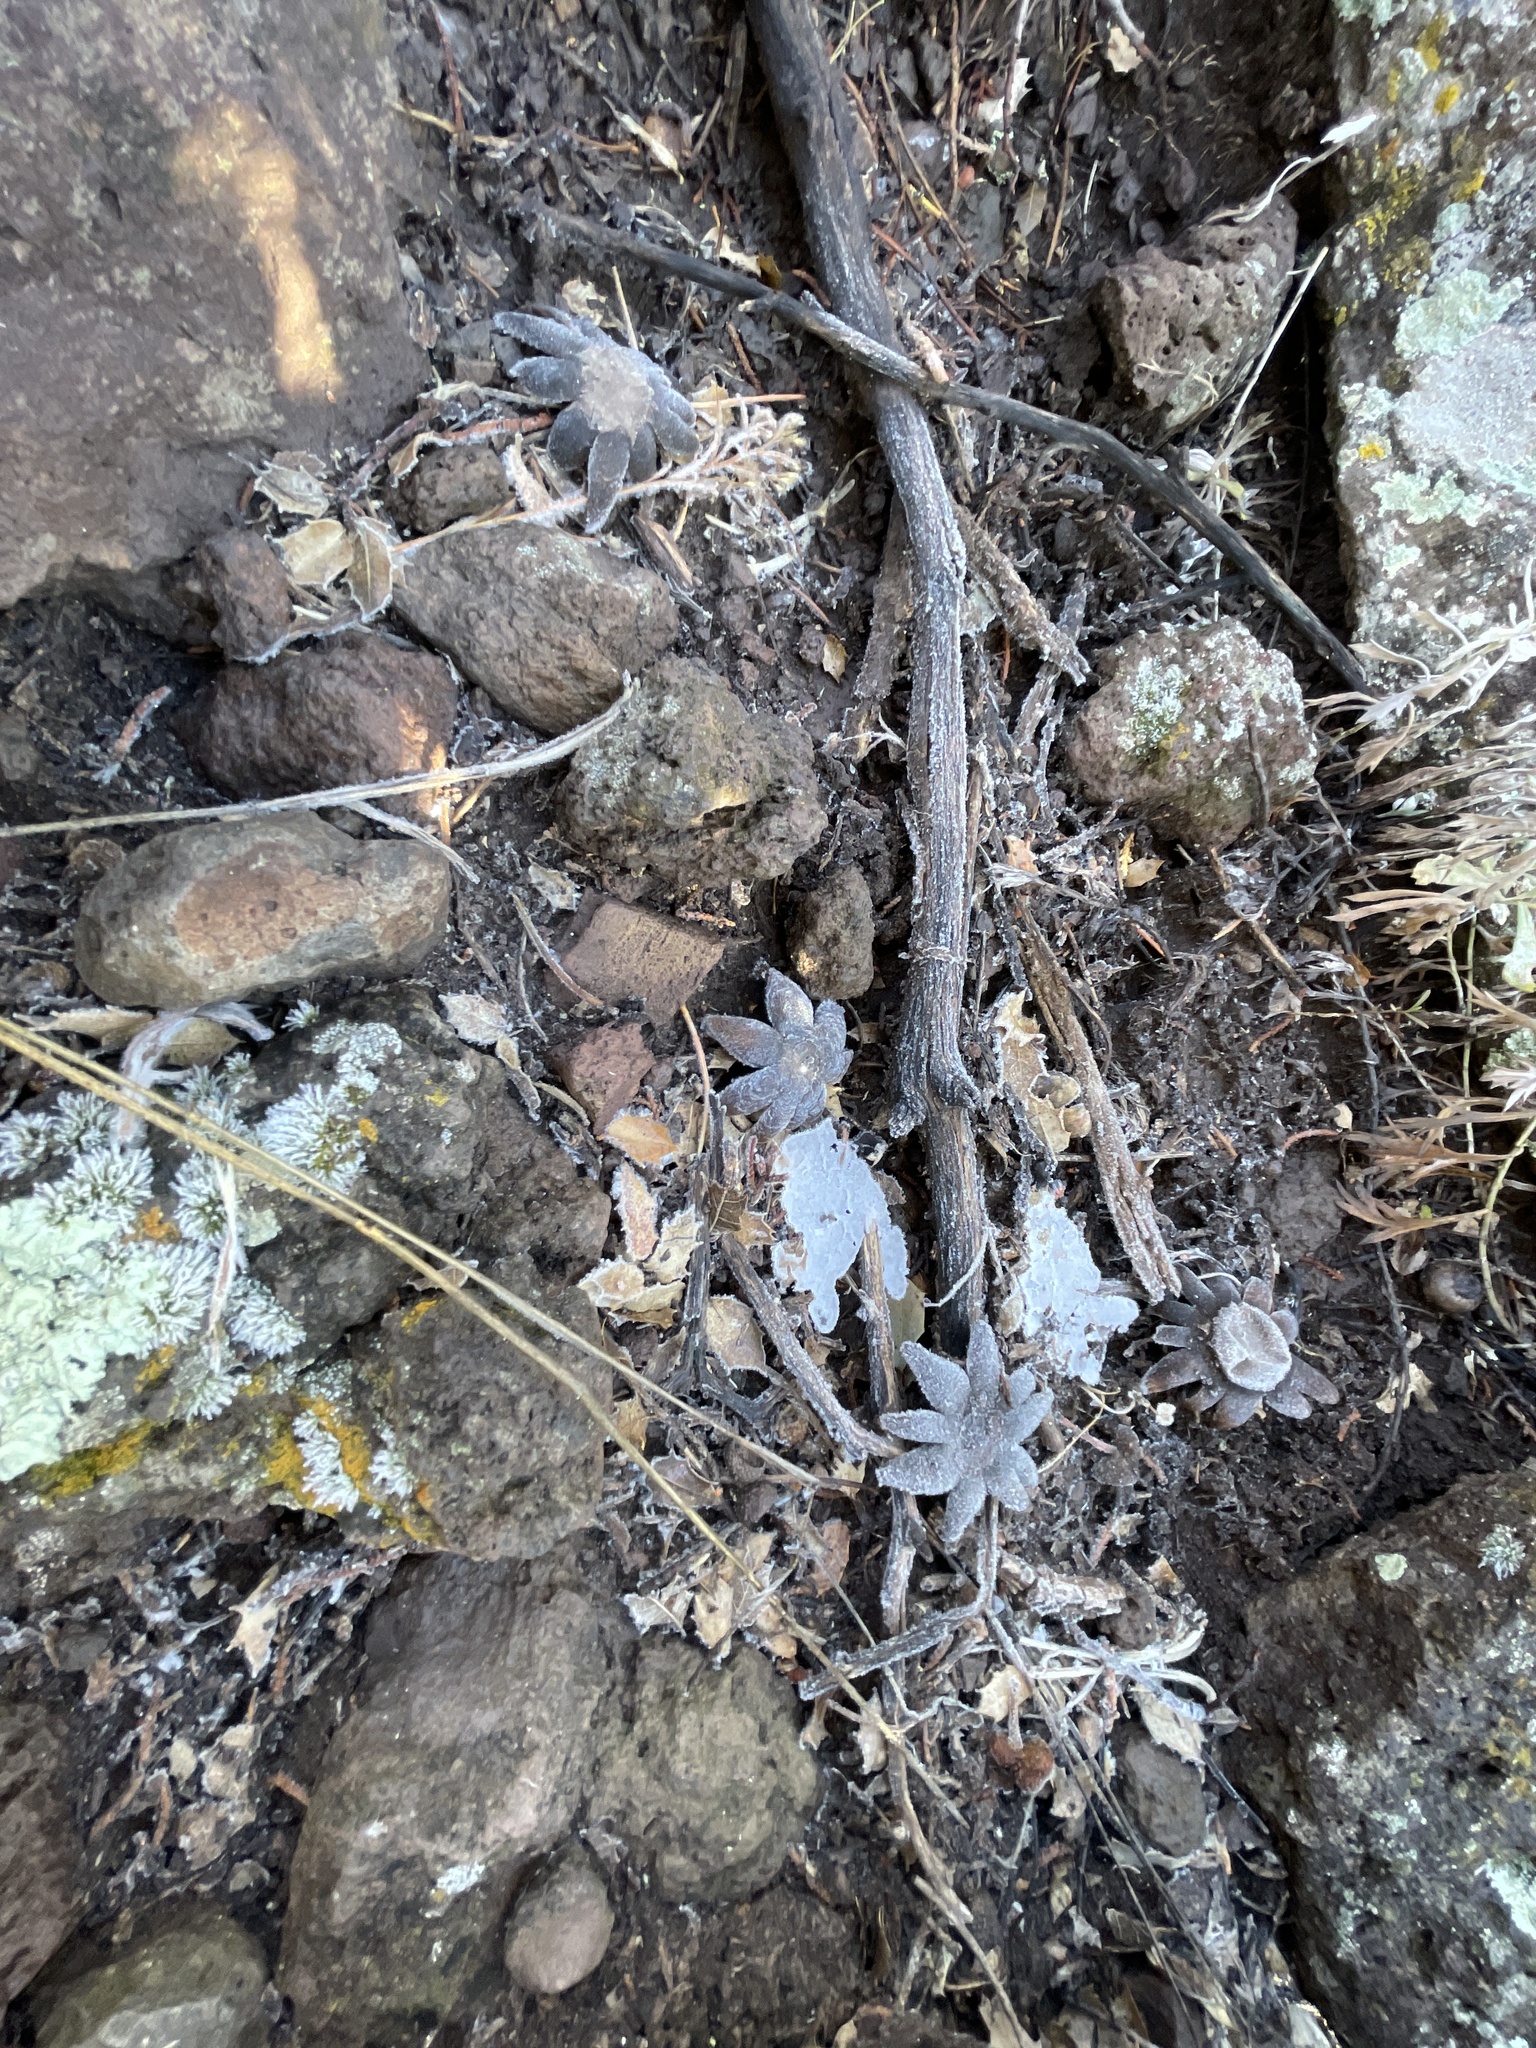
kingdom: Fungi
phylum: Basidiomycota
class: Agaricomycetes
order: Boletales
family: Diplocystidiaceae
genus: Astraeus
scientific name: Astraeus morganii
